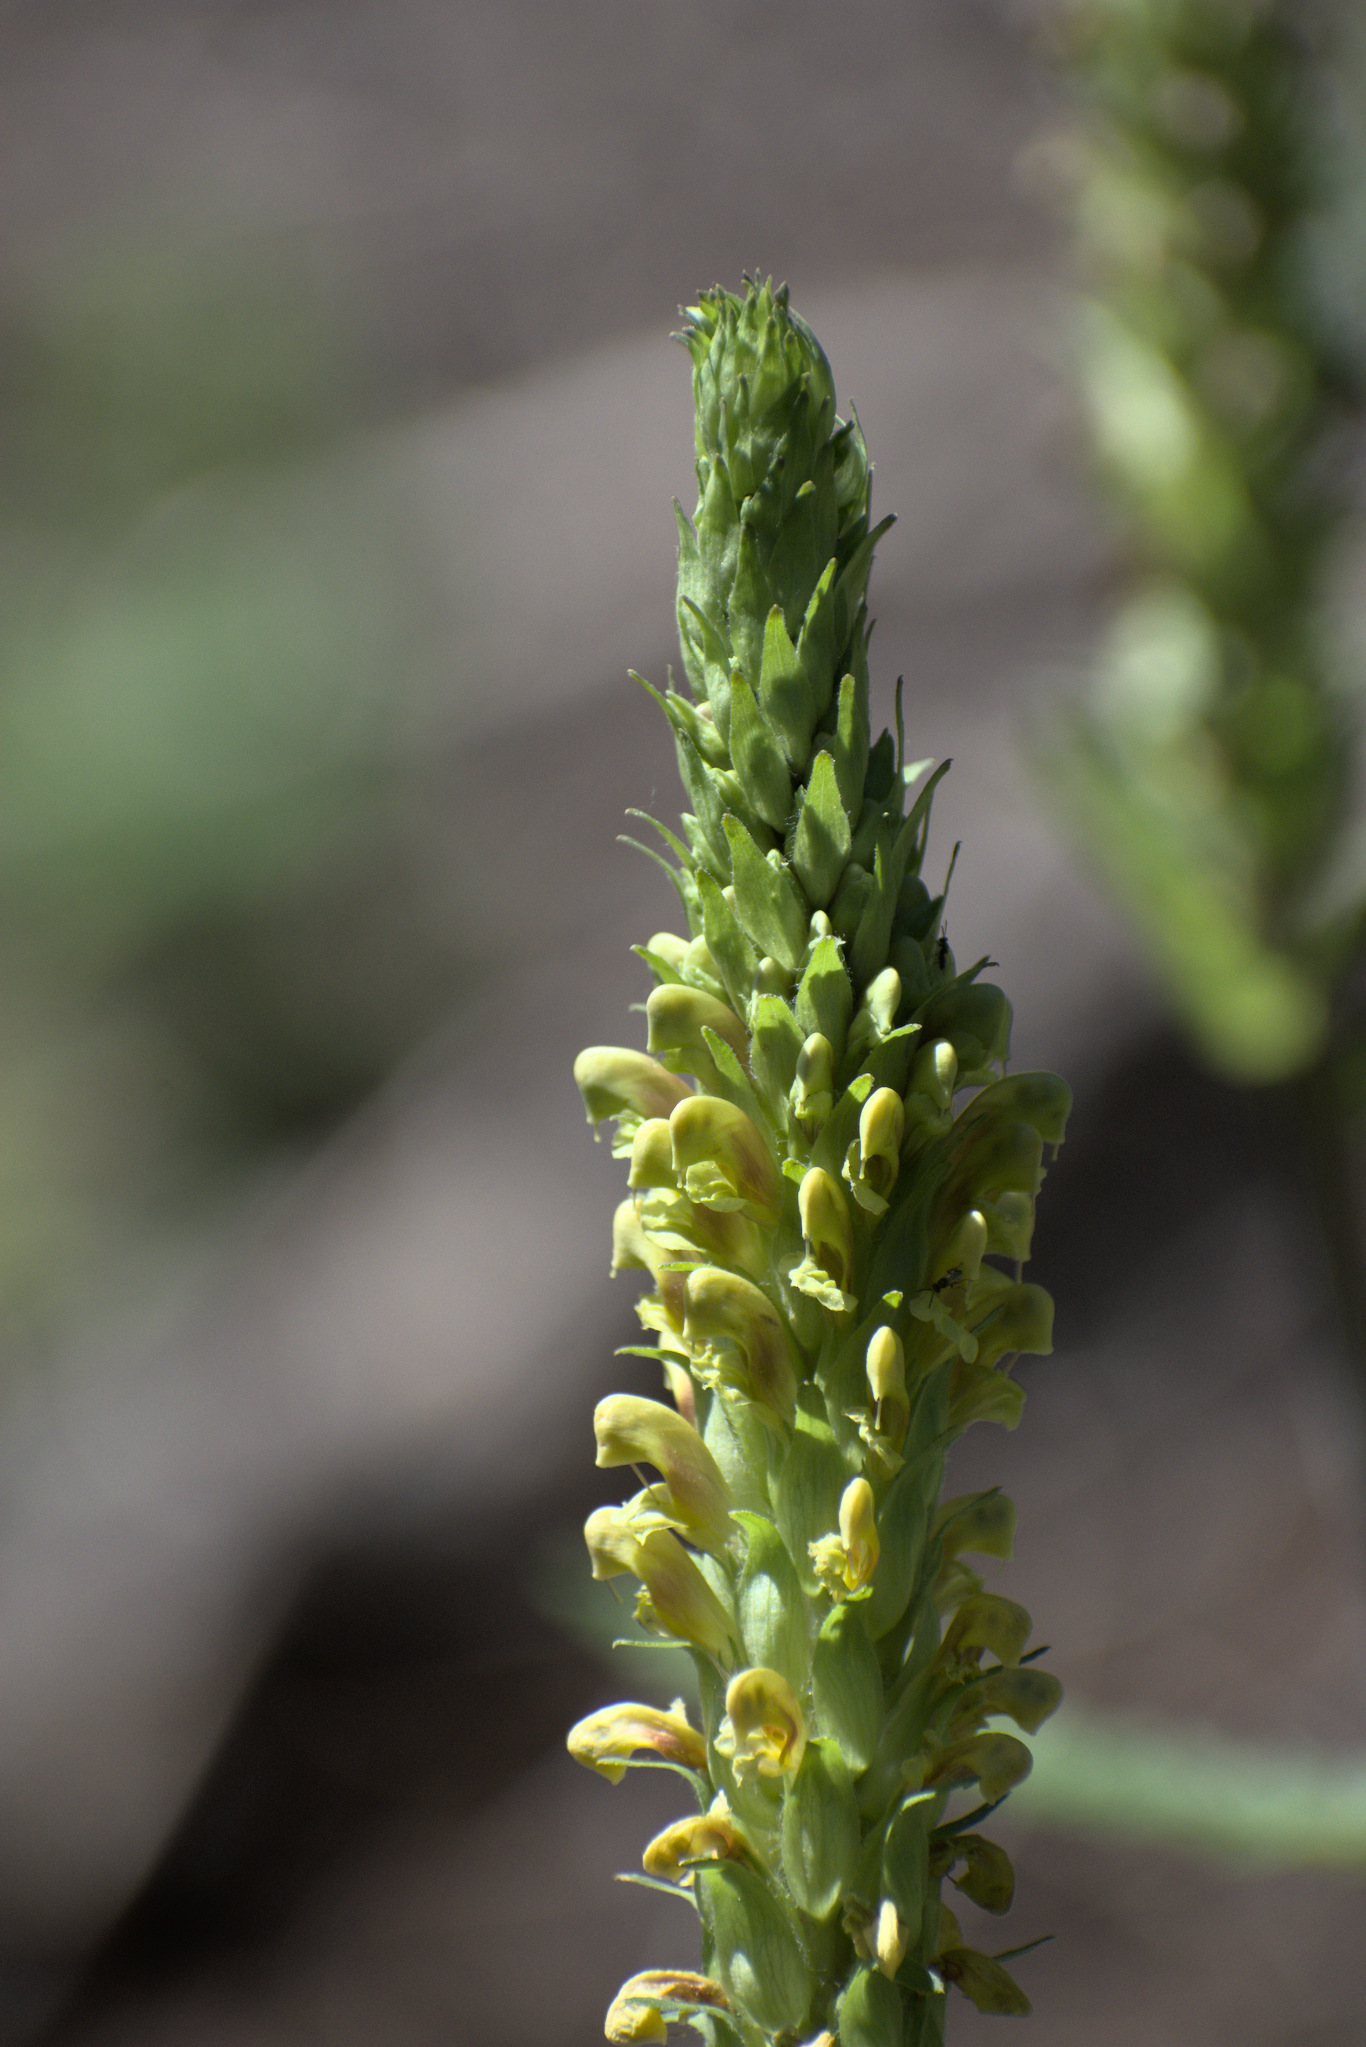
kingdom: Plantae
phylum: Tracheophyta
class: Magnoliopsida
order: Lamiales
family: Orobanchaceae
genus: Pedicularis
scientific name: Pedicularis bracteosa
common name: Bracted lousewort
